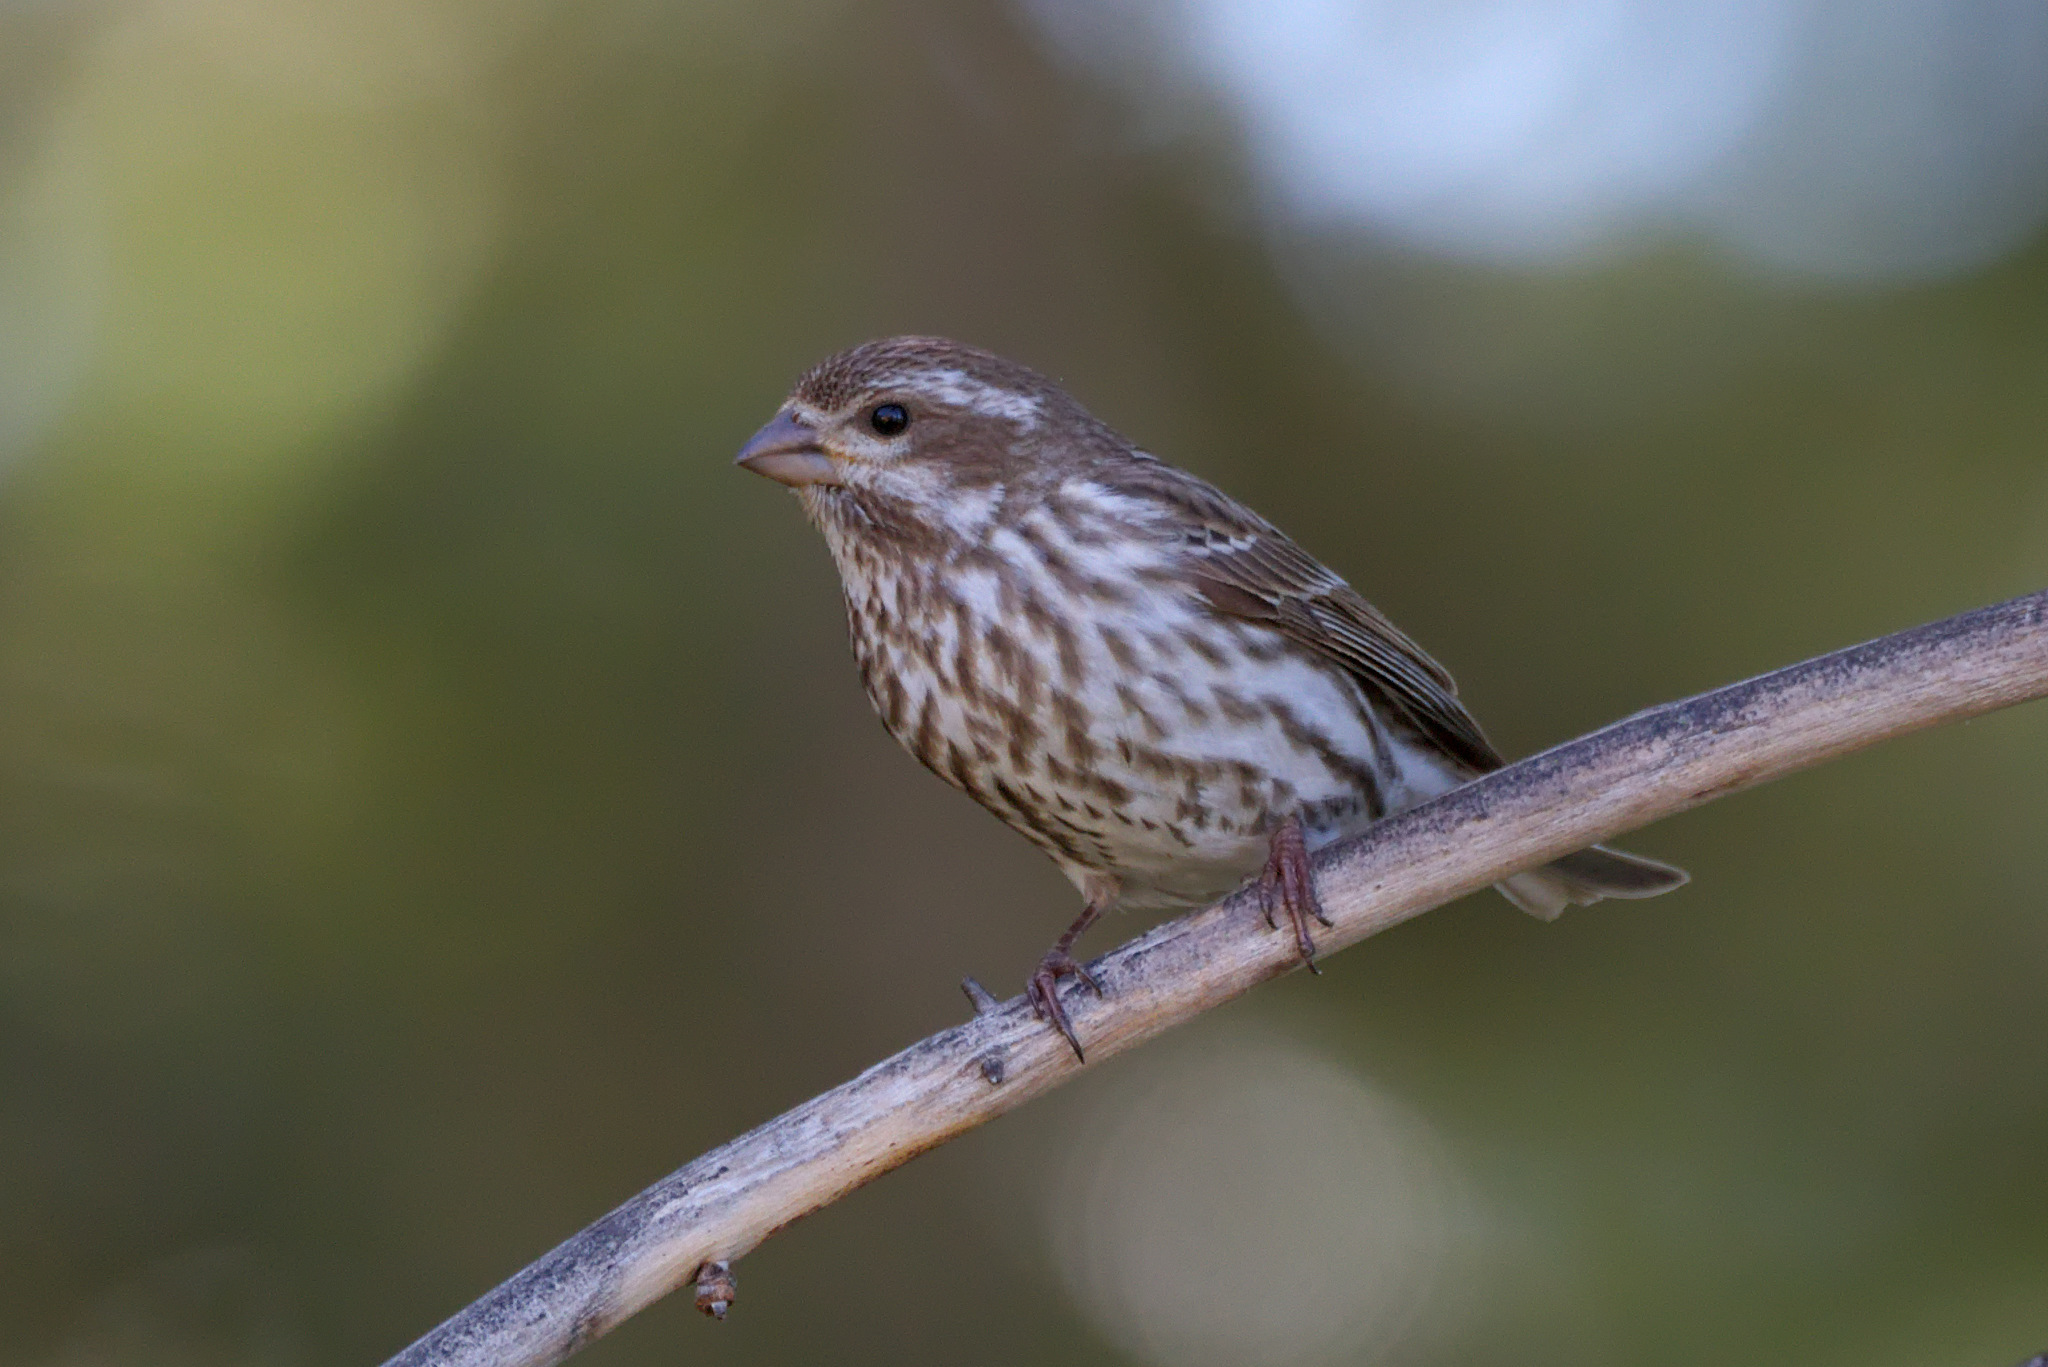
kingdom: Animalia
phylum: Chordata
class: Aves
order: Passeriformes
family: Fringillidae
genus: Haemorhous
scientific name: Haemorhous purpureus
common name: Purple finch
